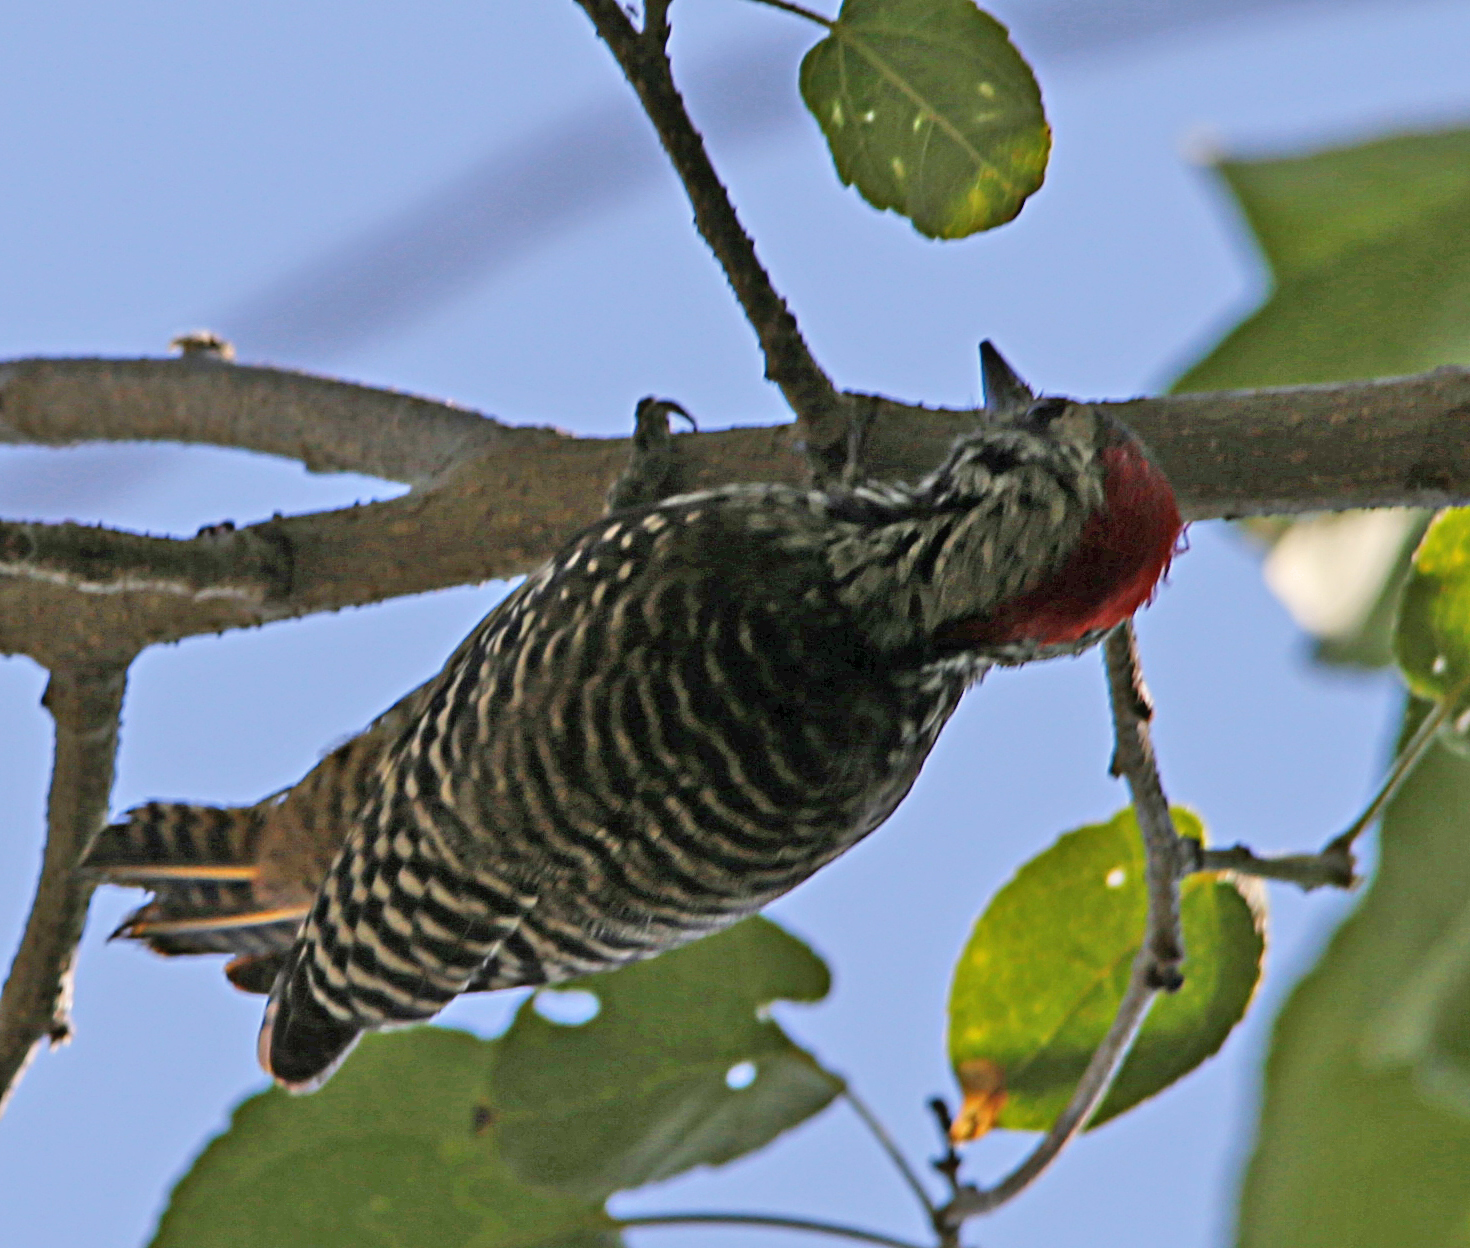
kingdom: Animalia
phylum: Chordata
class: Aves
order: Piciformes
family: Picidae
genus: Dendropicos
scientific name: Dendropicos fuscescens
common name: Cardinal woodpecker
